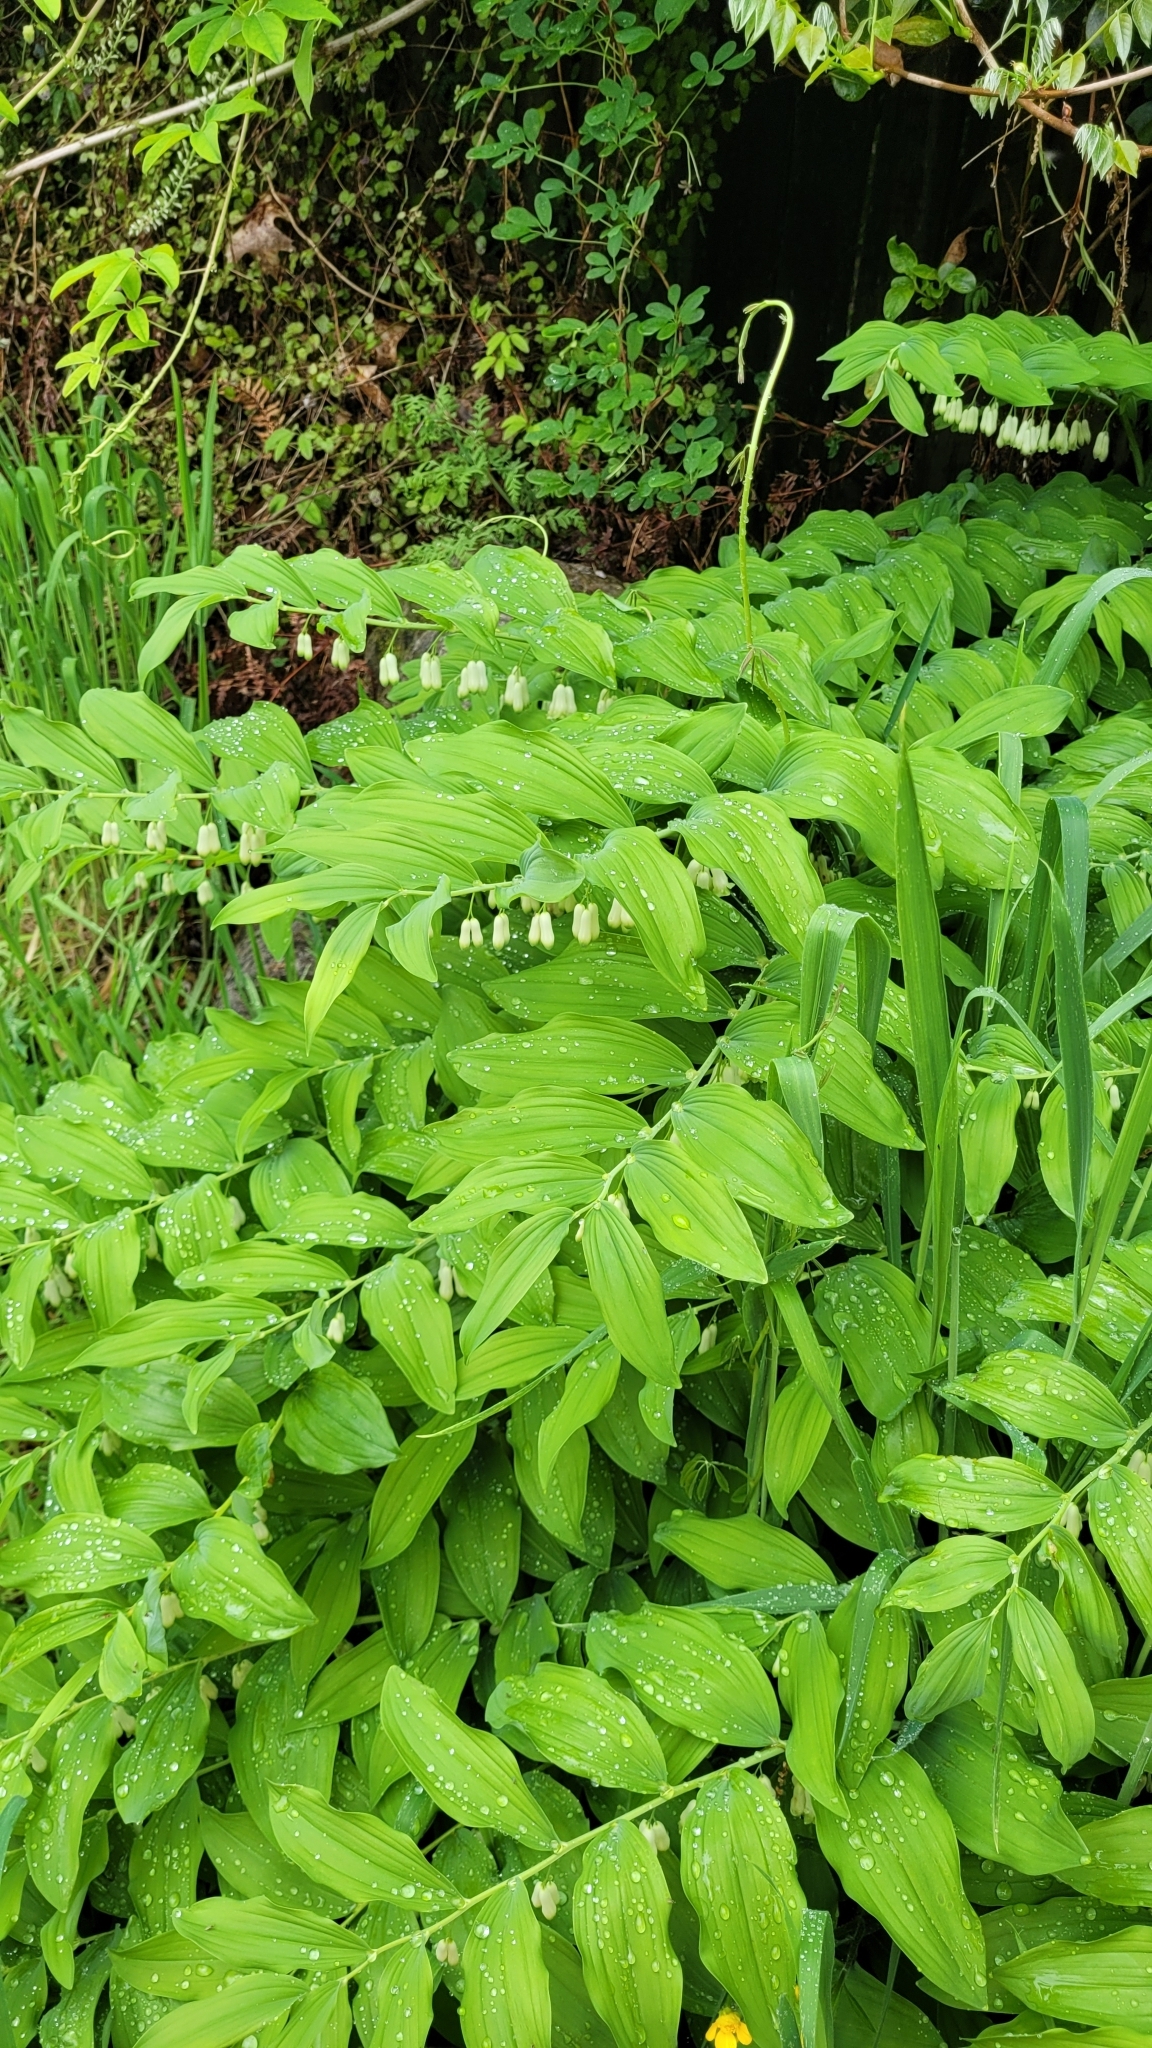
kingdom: Plantae
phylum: Tracheophyta
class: Liliopsida
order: Asparagales
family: Asparagaceae
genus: Polygonatum
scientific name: Polygonatum multiflorum
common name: Solomon's-seal
